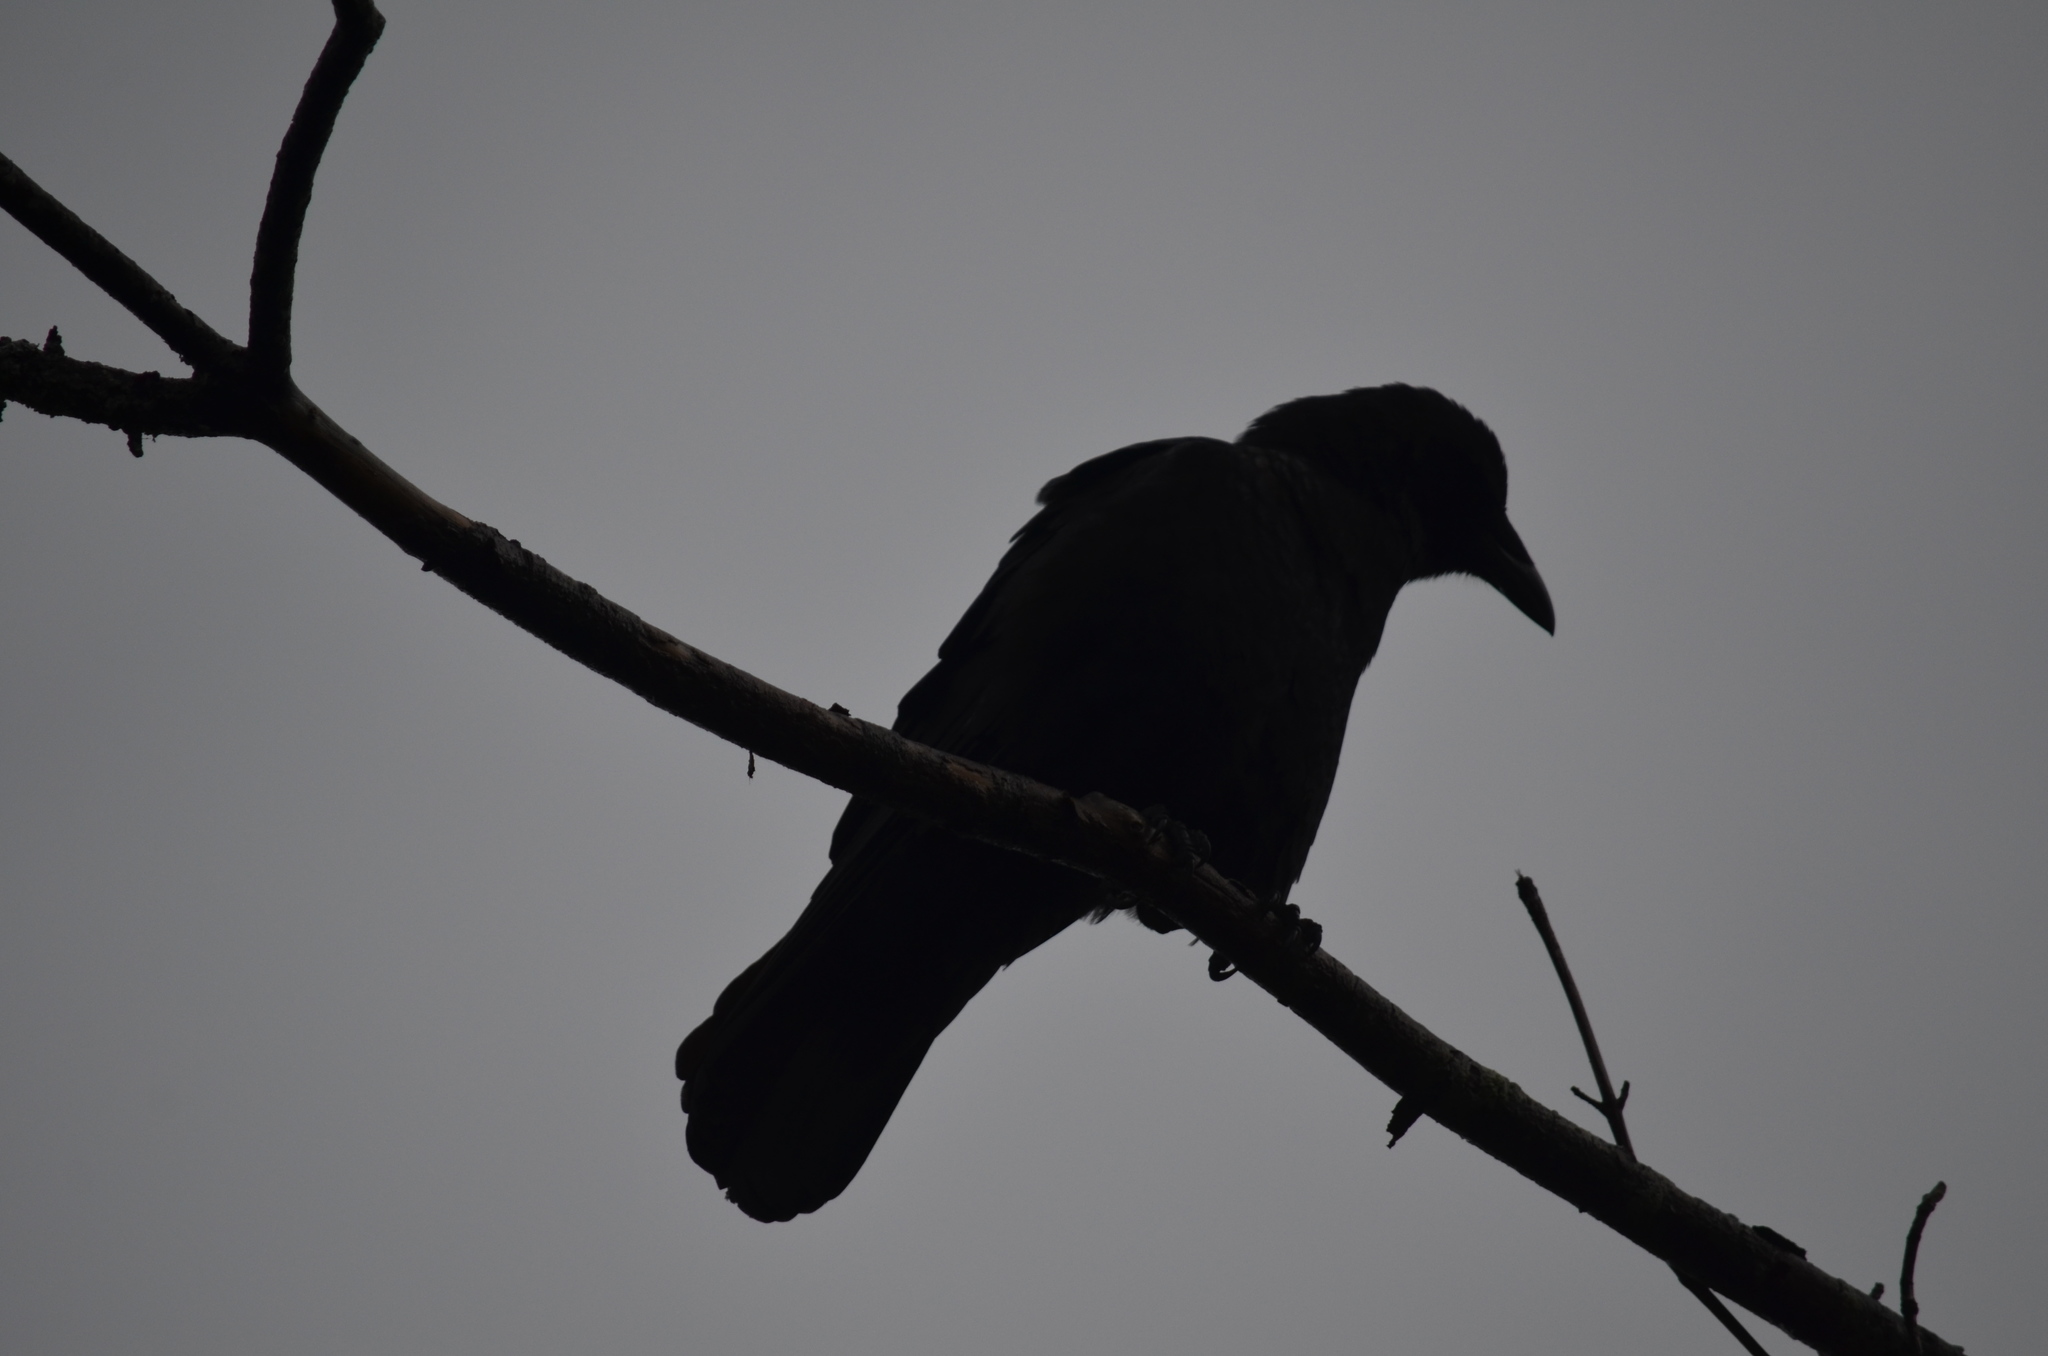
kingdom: Animalia
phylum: Chordata
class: Aves
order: Passeriformes
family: Corvidae
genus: Corvus
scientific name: Corvus brachyrhynchos
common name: American crow
